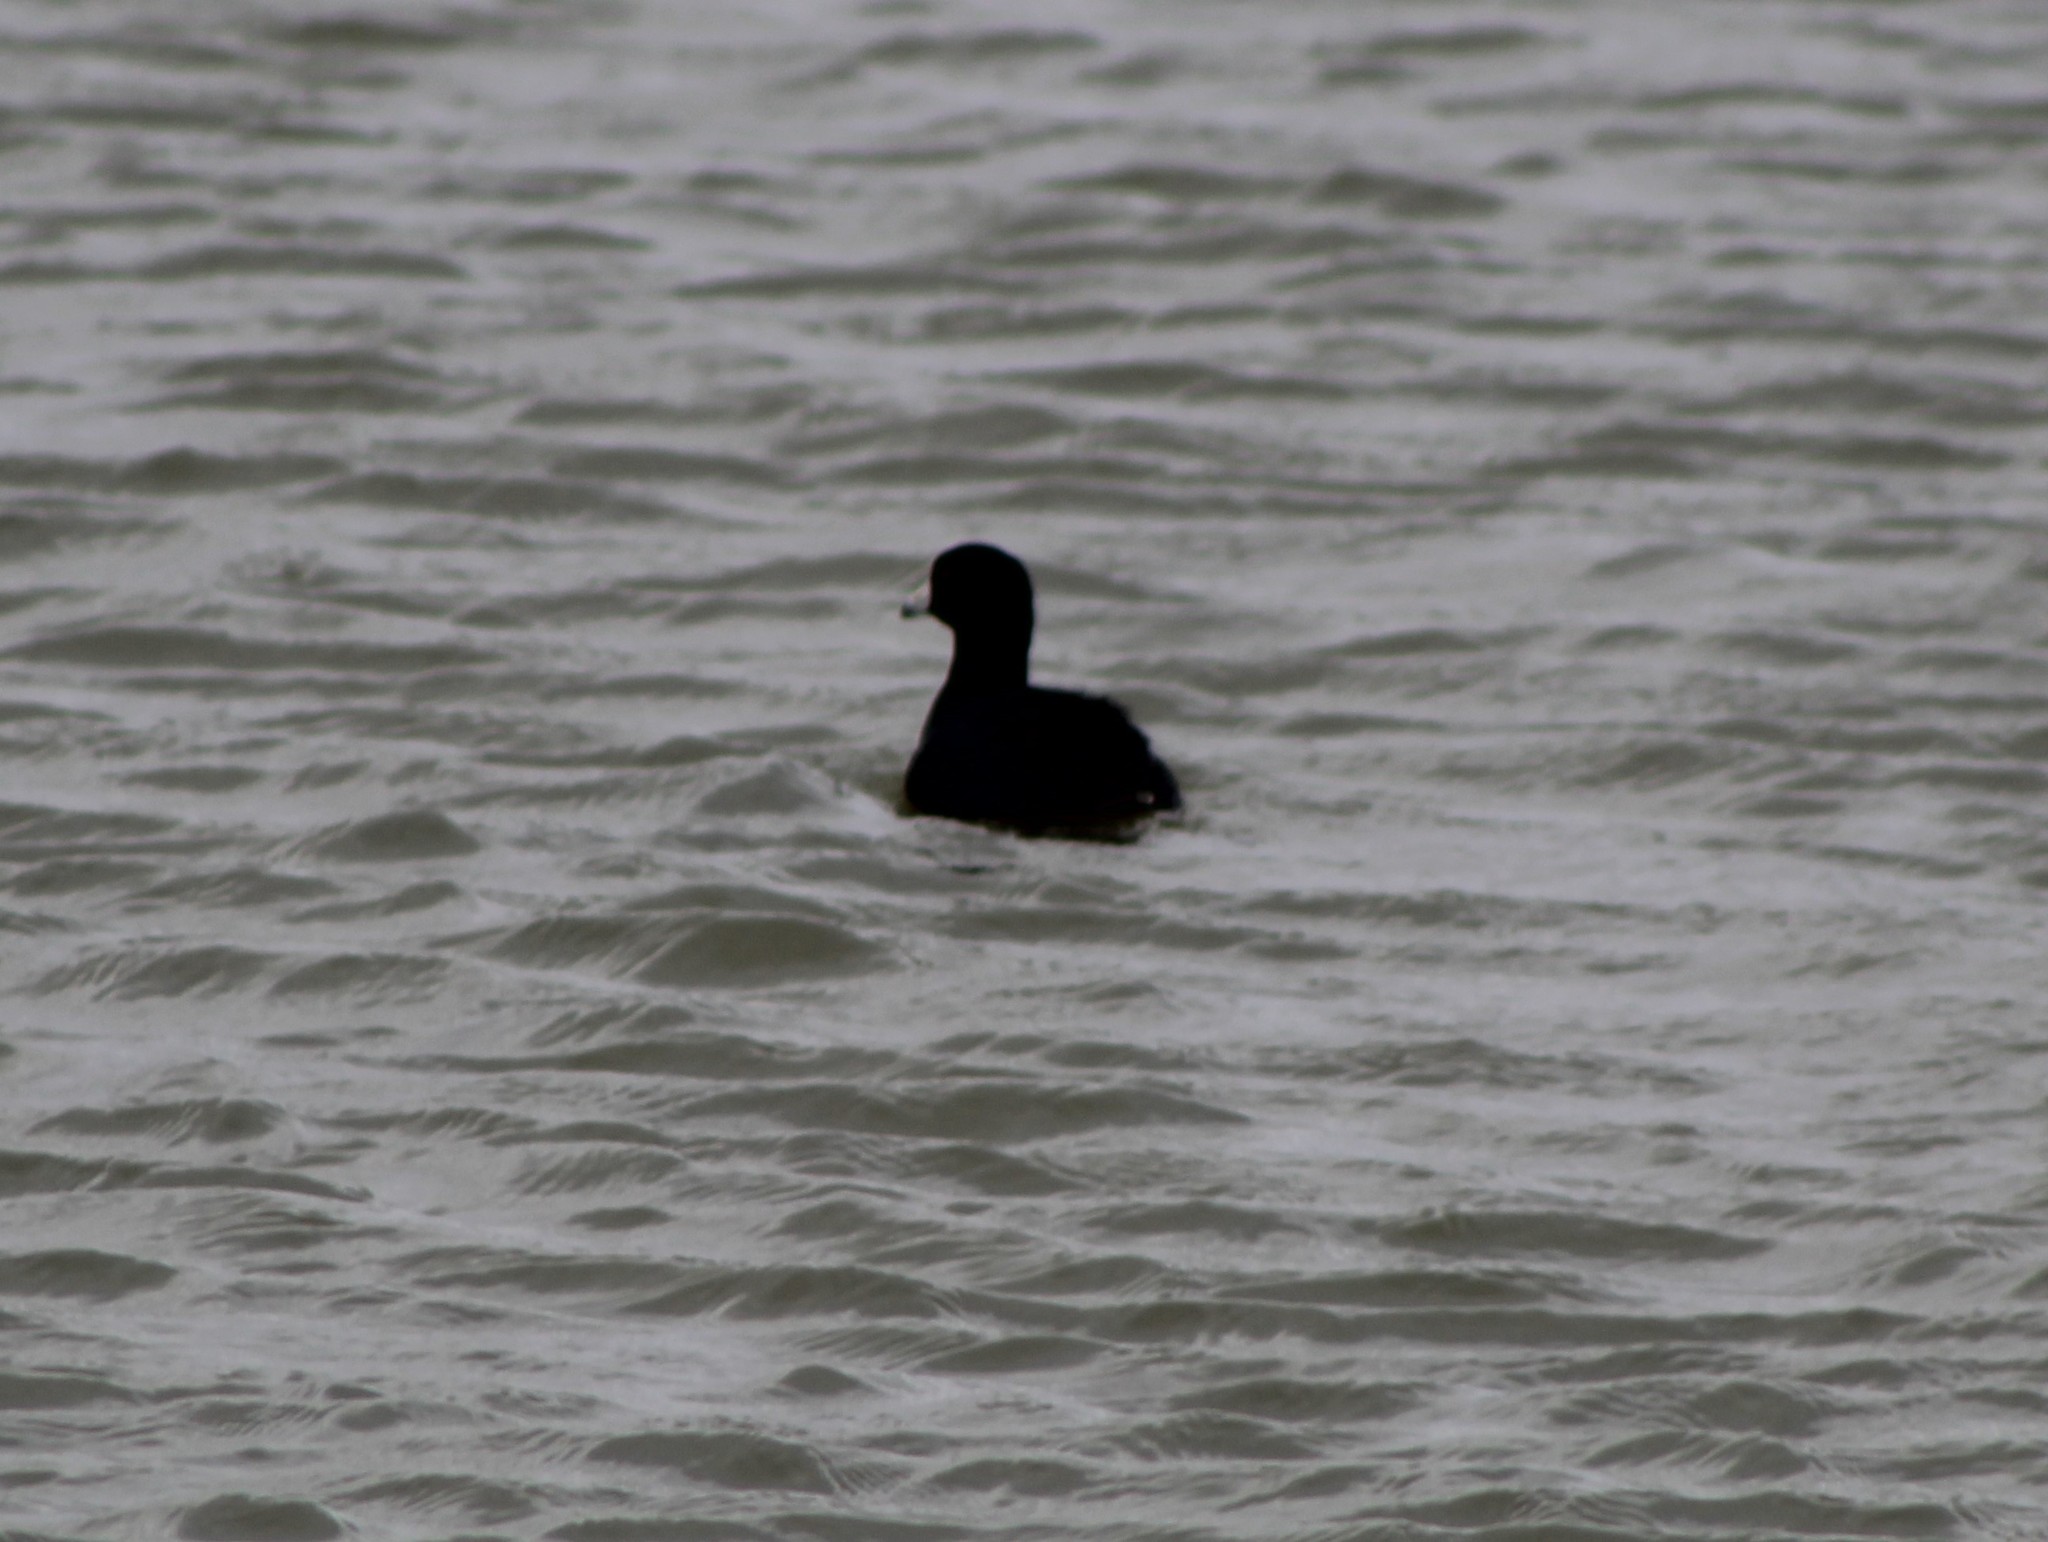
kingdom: Animalia
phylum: Chordata
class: Aves
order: Gruiformes
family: Rallidae
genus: Fulica
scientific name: Fulica americana
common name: American coot
